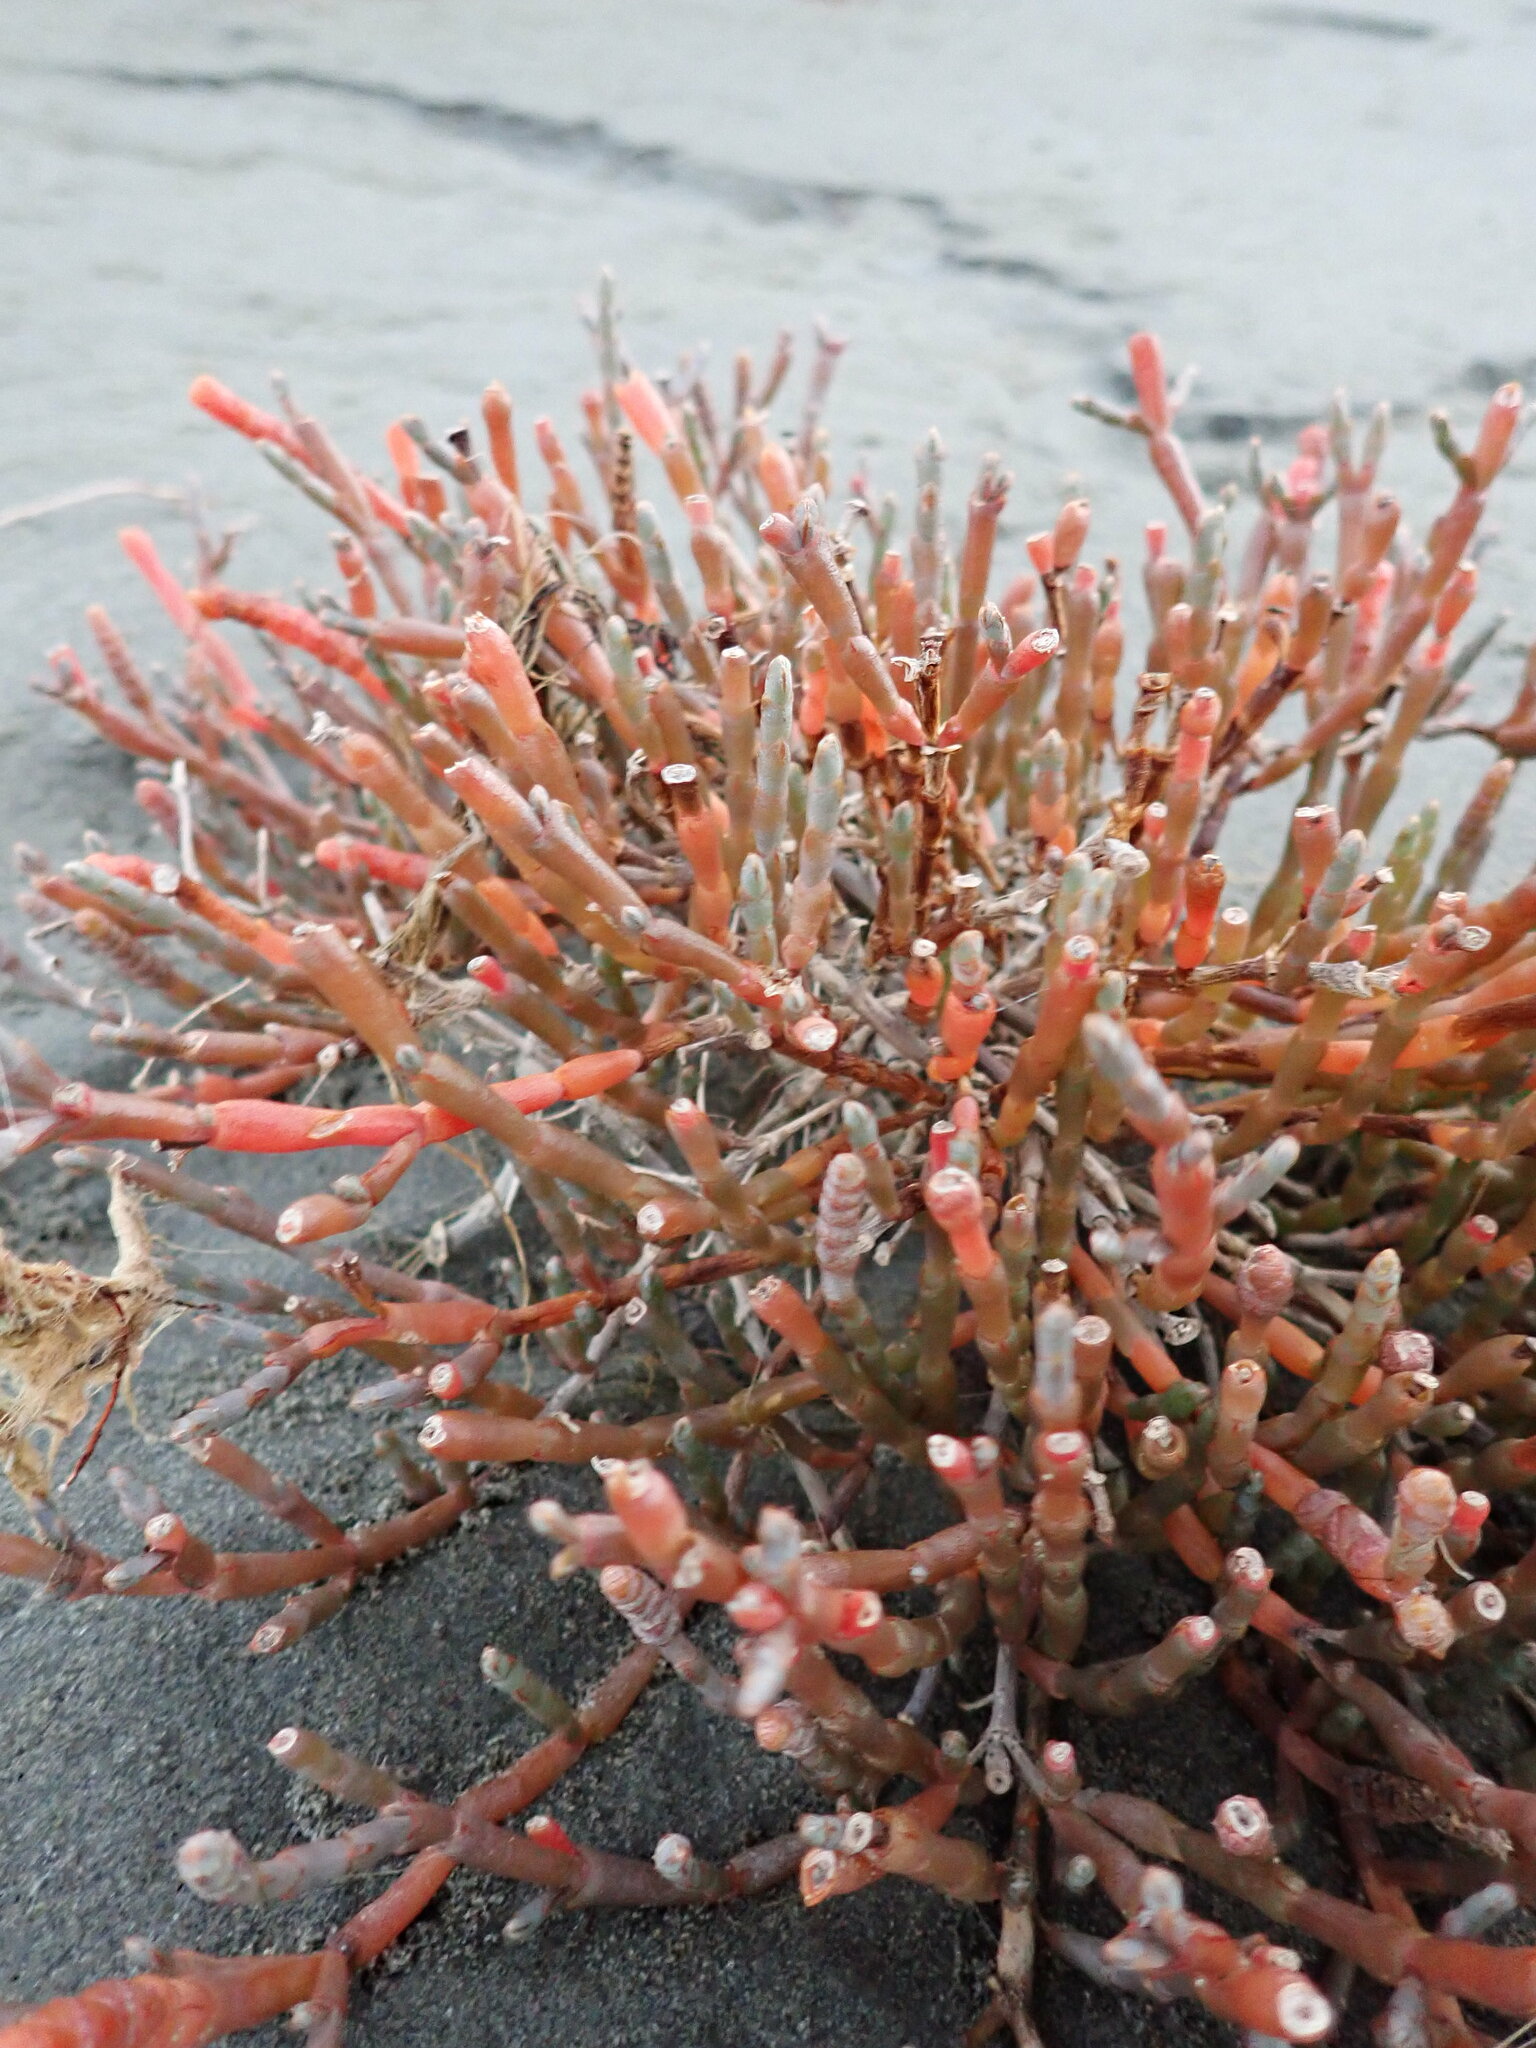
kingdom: Plantae
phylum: Tracheophyta
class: Magnoliopsida
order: Caryophyllales
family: Amaranthaceae
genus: Salicornia
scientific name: Salicornia quinqueflora
